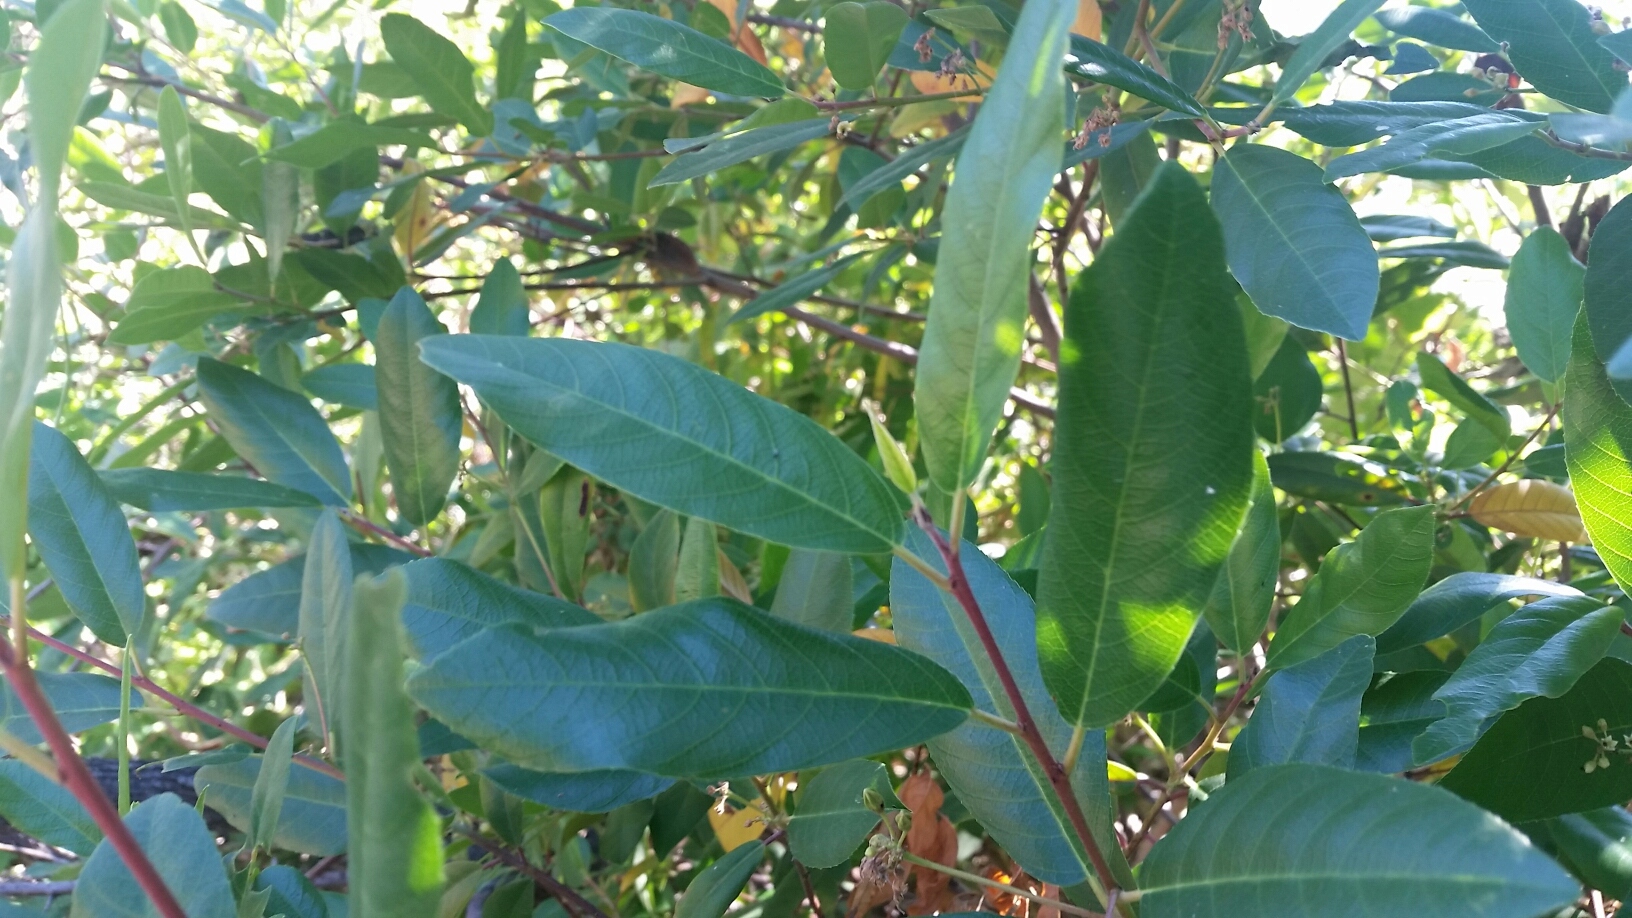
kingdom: Plantae
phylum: Tracheophyta
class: Magnoliopsida
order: Rosales
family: Rhamnaceae
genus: Frangula
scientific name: Frangula californica
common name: California buckthorn
